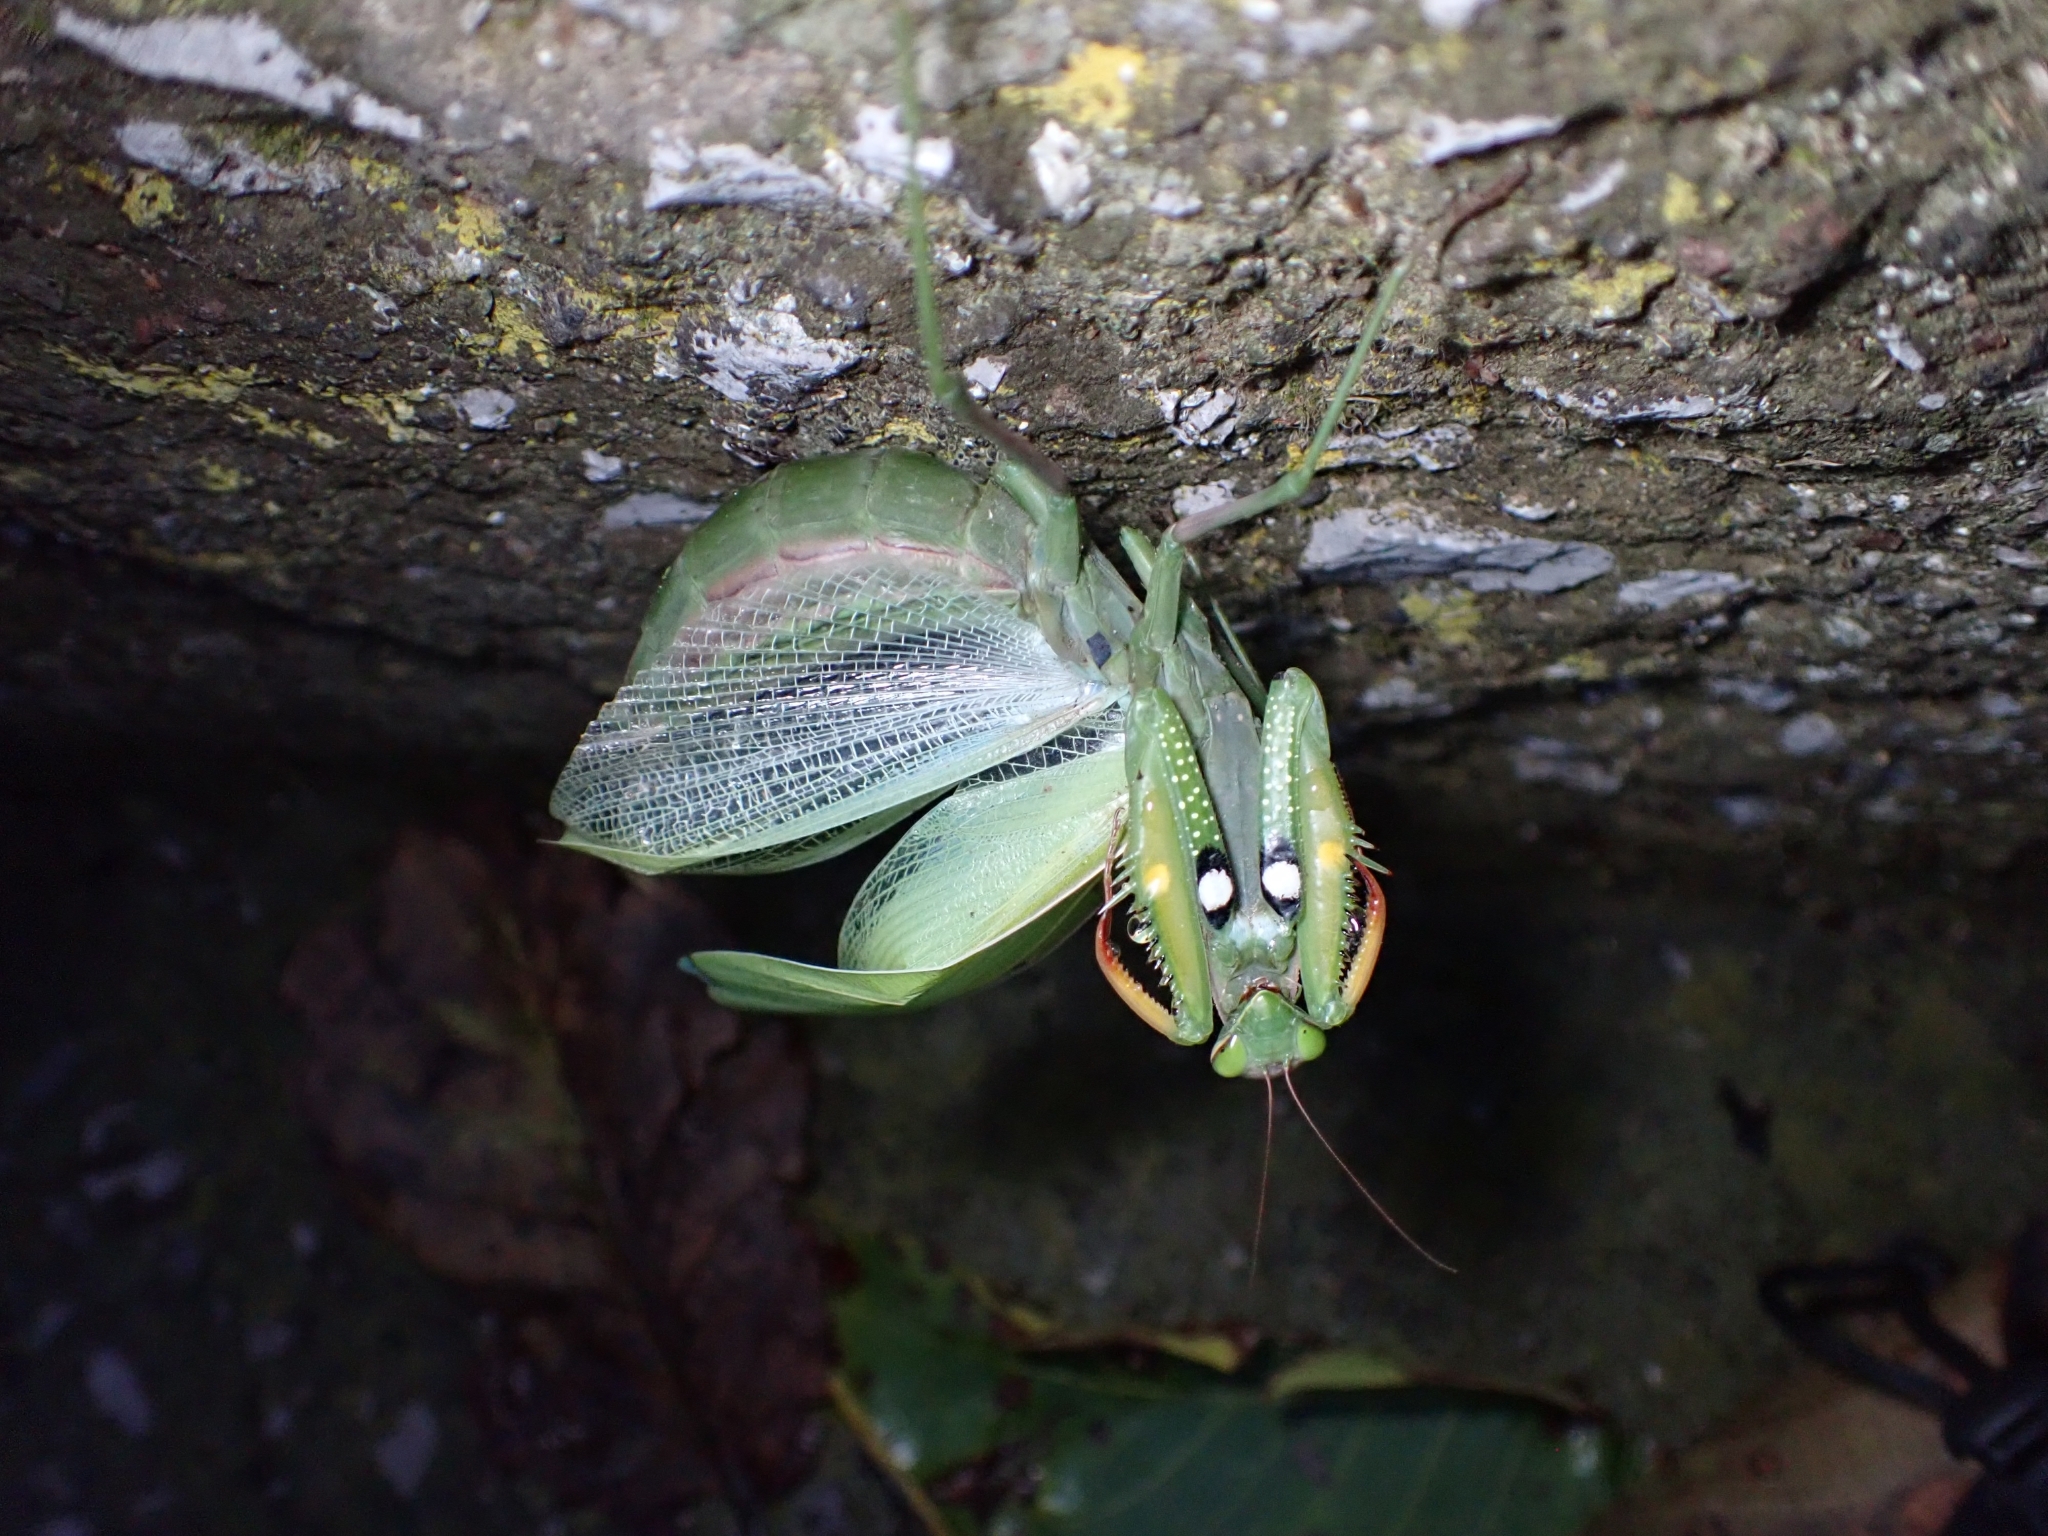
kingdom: Animalia
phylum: Arthropoda
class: Insecta
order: Mantodea
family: Mantidae
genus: Mantis
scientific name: Mantis religiosa
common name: Praying mantis
